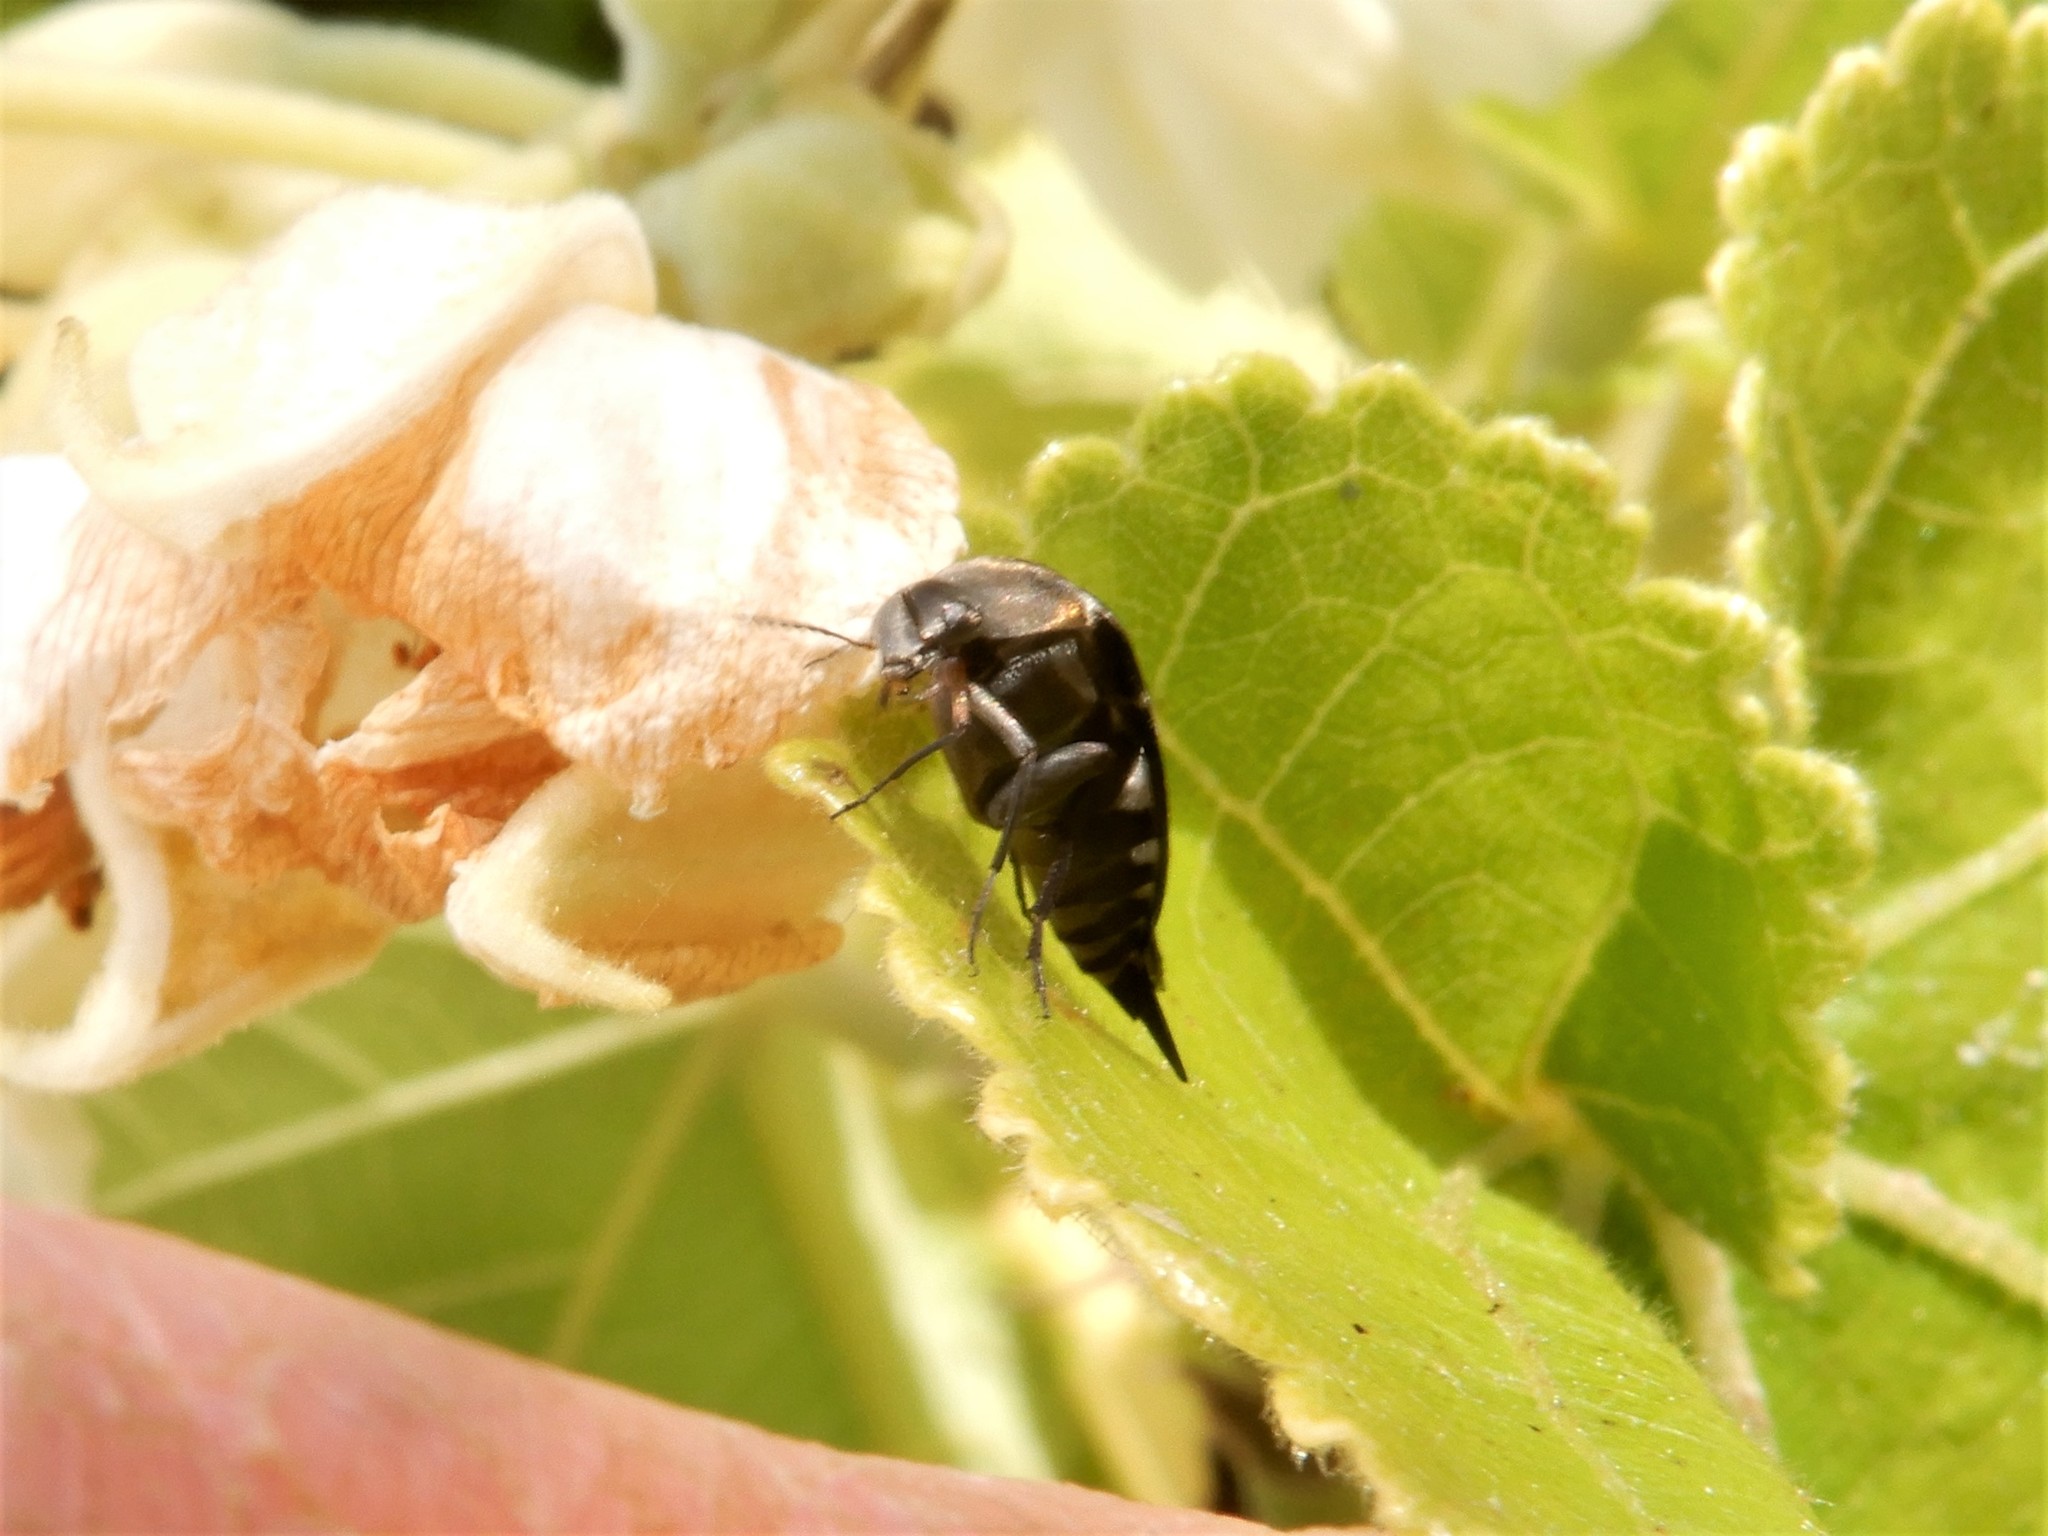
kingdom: Animalia
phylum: Arthropoda
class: Insecta
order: Coleoptera
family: Mordellidae
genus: Mordella
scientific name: Mordella
